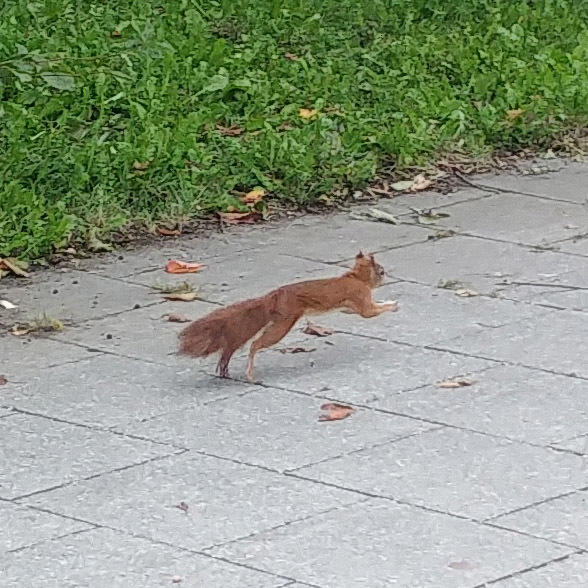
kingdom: Animalia
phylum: Chordata
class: Mammalia
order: Rodentia
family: Sciuridae
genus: Sciurus
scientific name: Sciurus vulgaris
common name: Eurasian red squirrel
